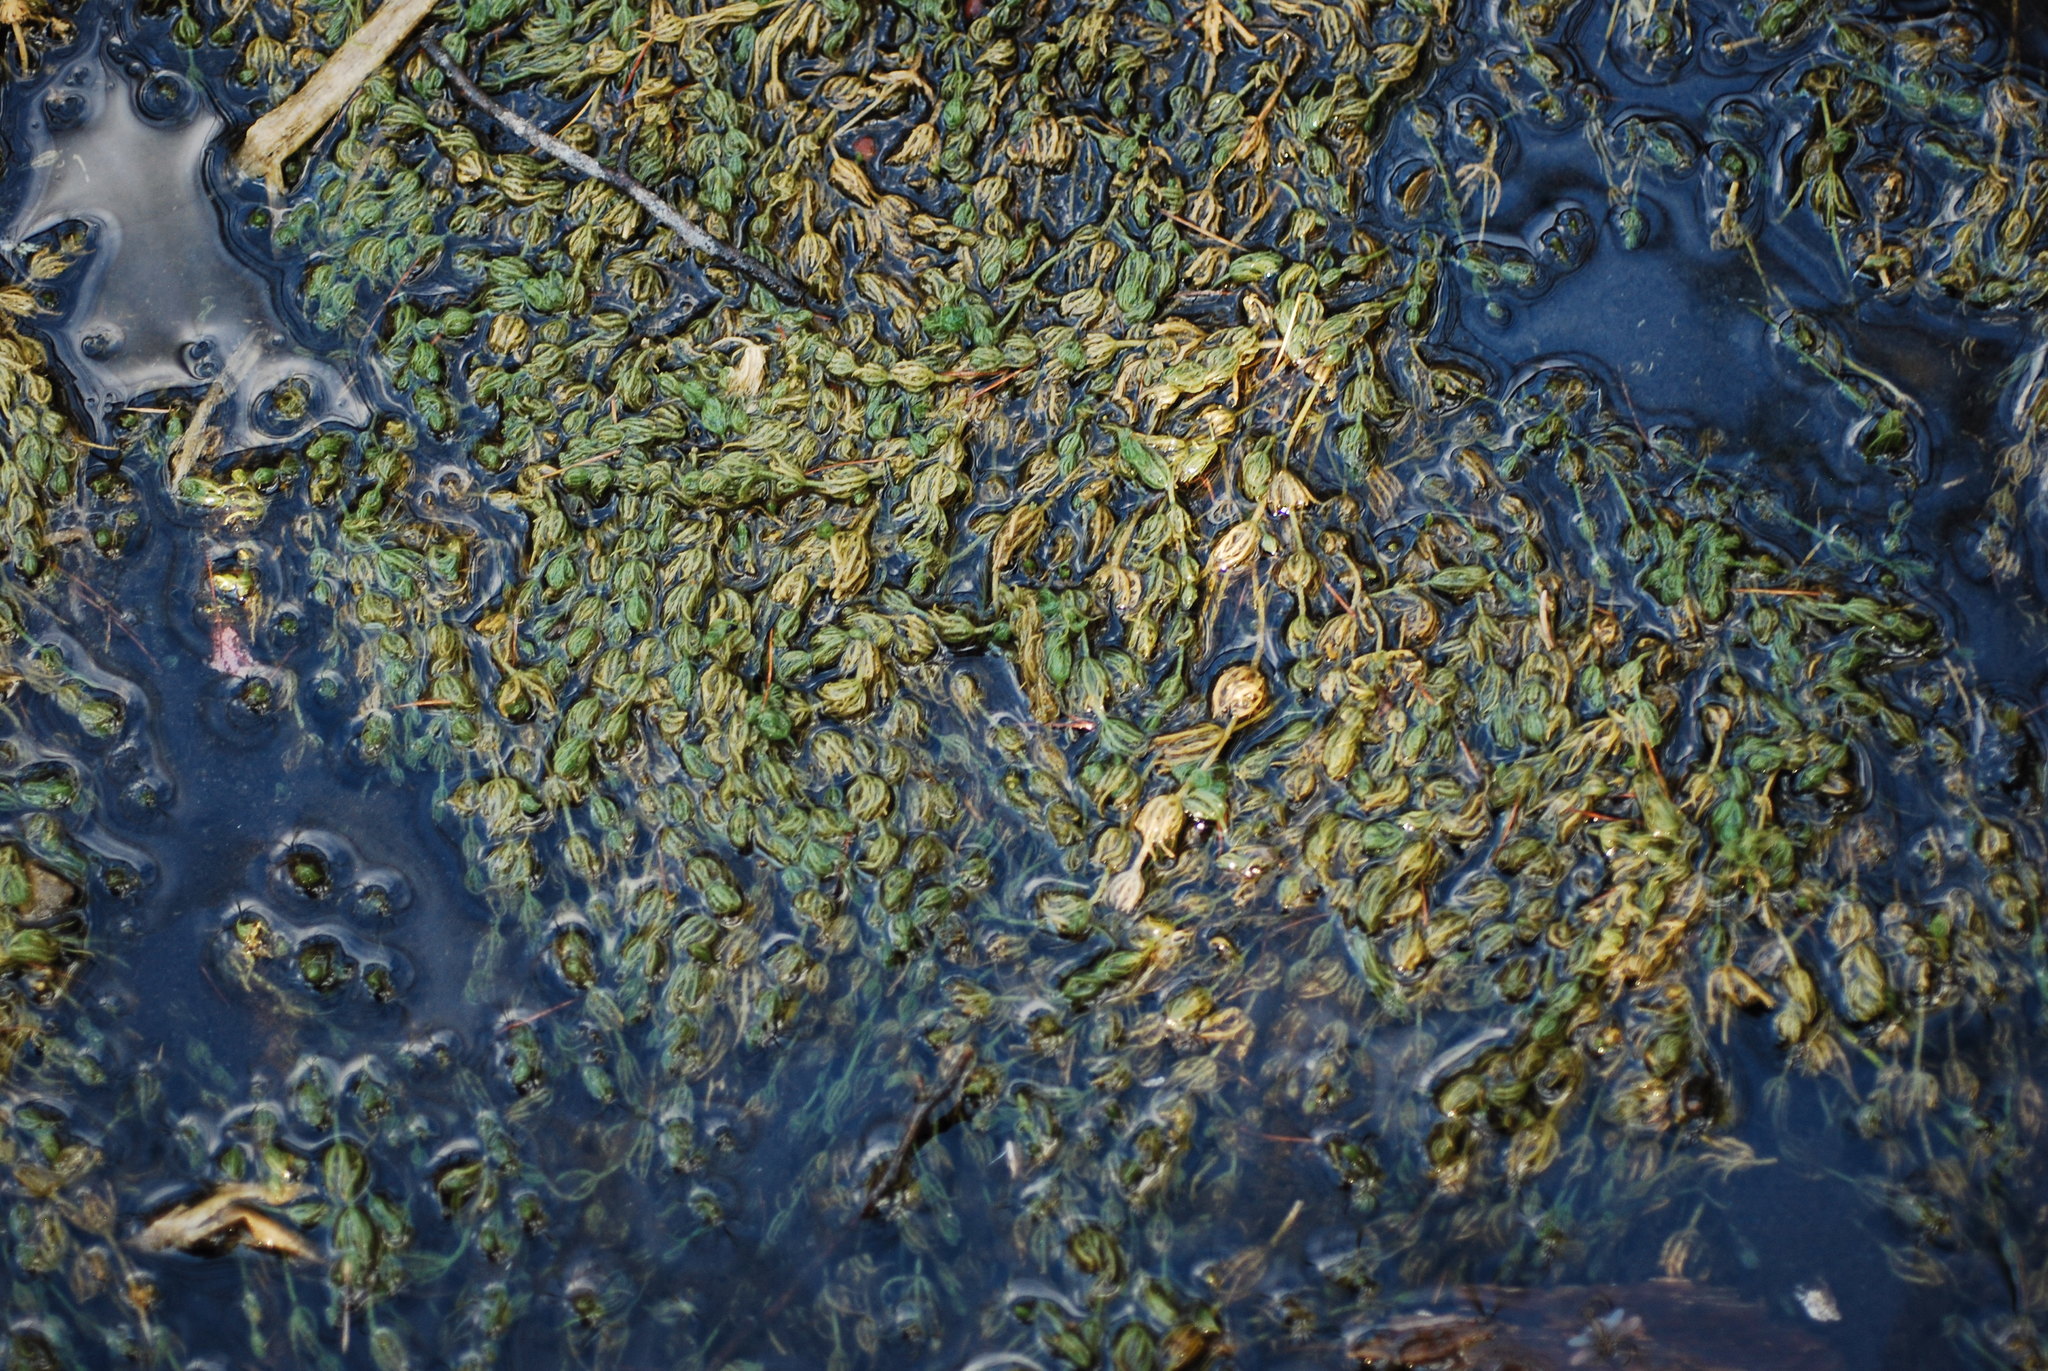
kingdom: Plantae
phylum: Charophyta
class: Charophyceae
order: Charales
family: Characeae
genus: Chara
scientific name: Chara vulgaris
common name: Common stonewort
